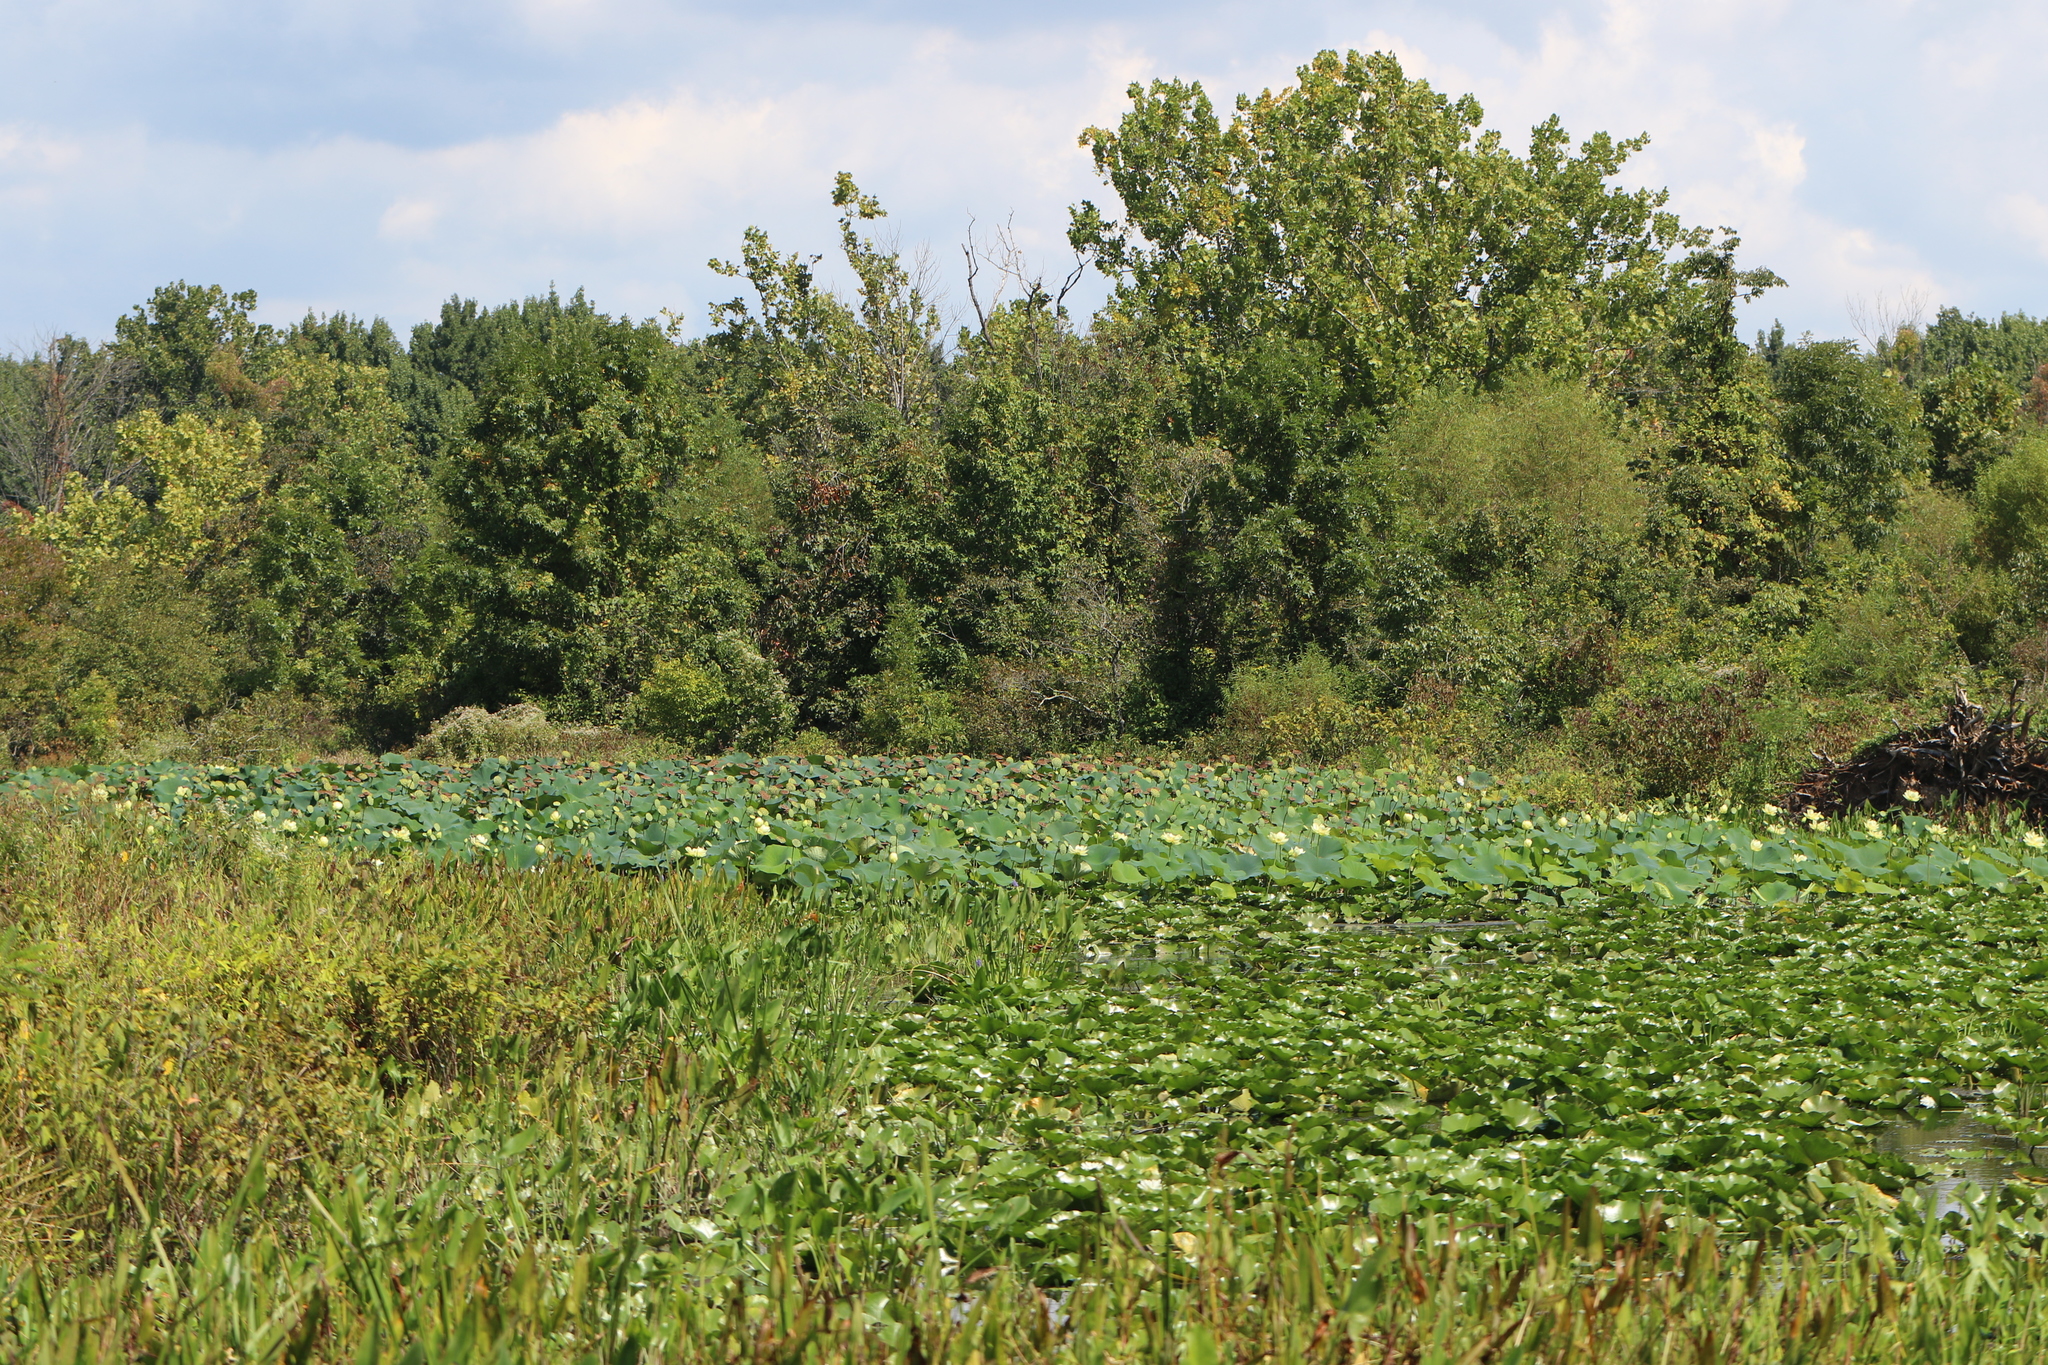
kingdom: Plantae
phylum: Tracheophyta
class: Magnoliopsida
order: Proteales
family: Nelumbonaceae
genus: Nelumbo
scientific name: Nelumbo lutea
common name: American lotus
